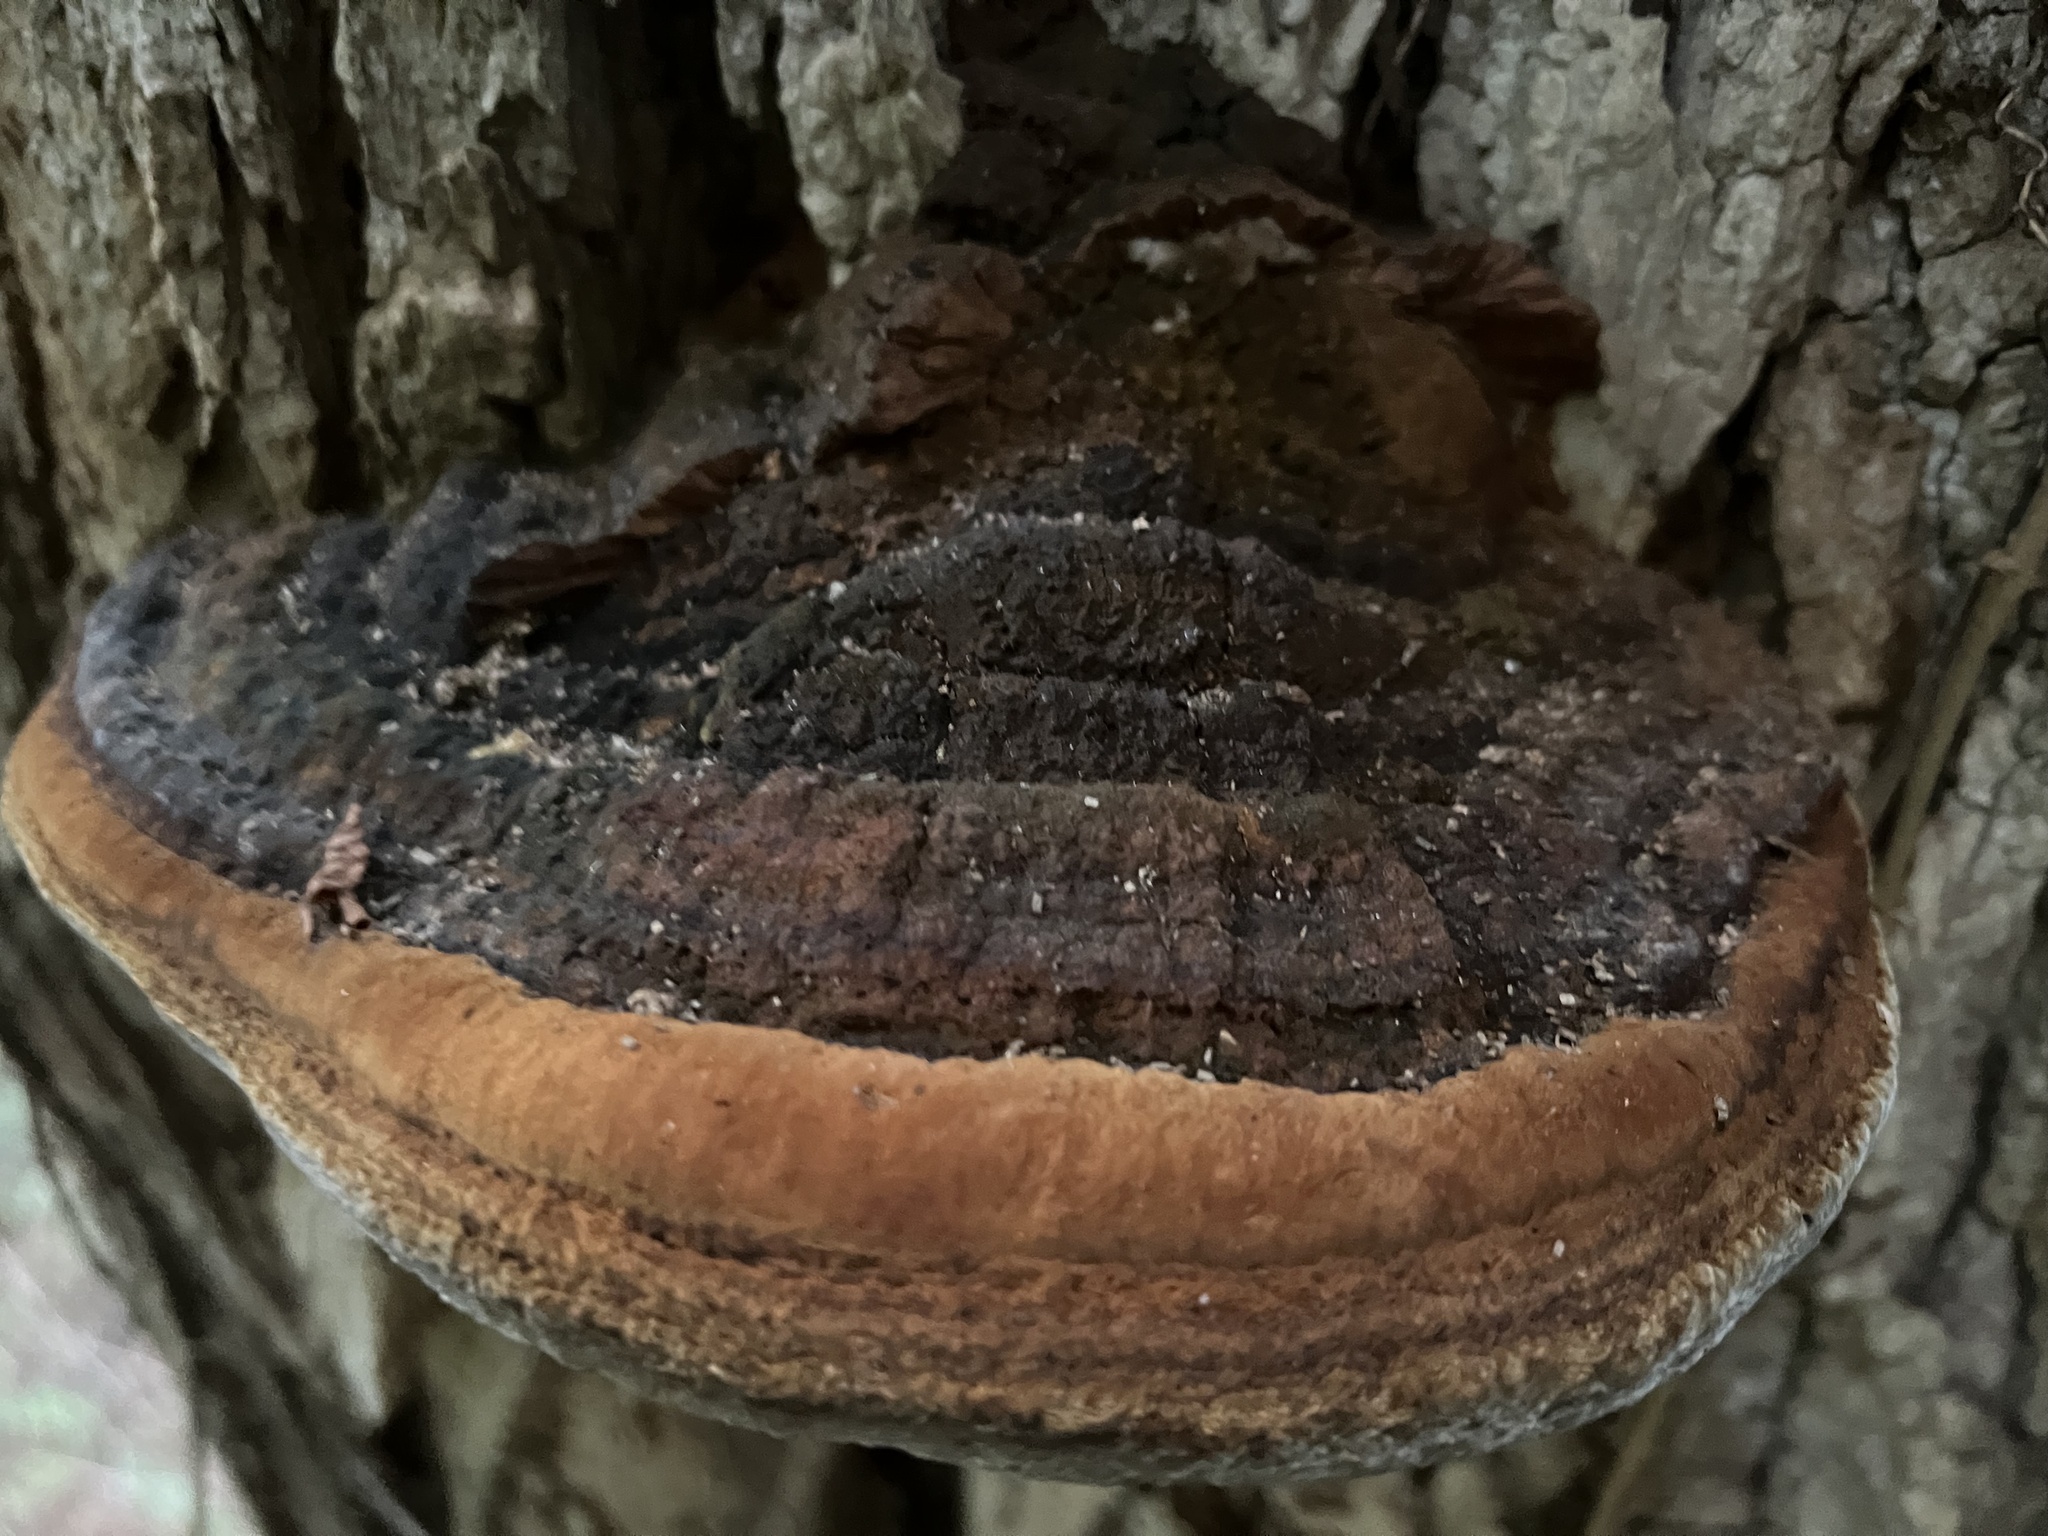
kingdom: Fungi
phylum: Basidiomycota
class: Agaricomycetes
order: Hymenochaetales
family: Hymenochaetaceae
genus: Phellinus
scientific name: Phellinus robiniae
